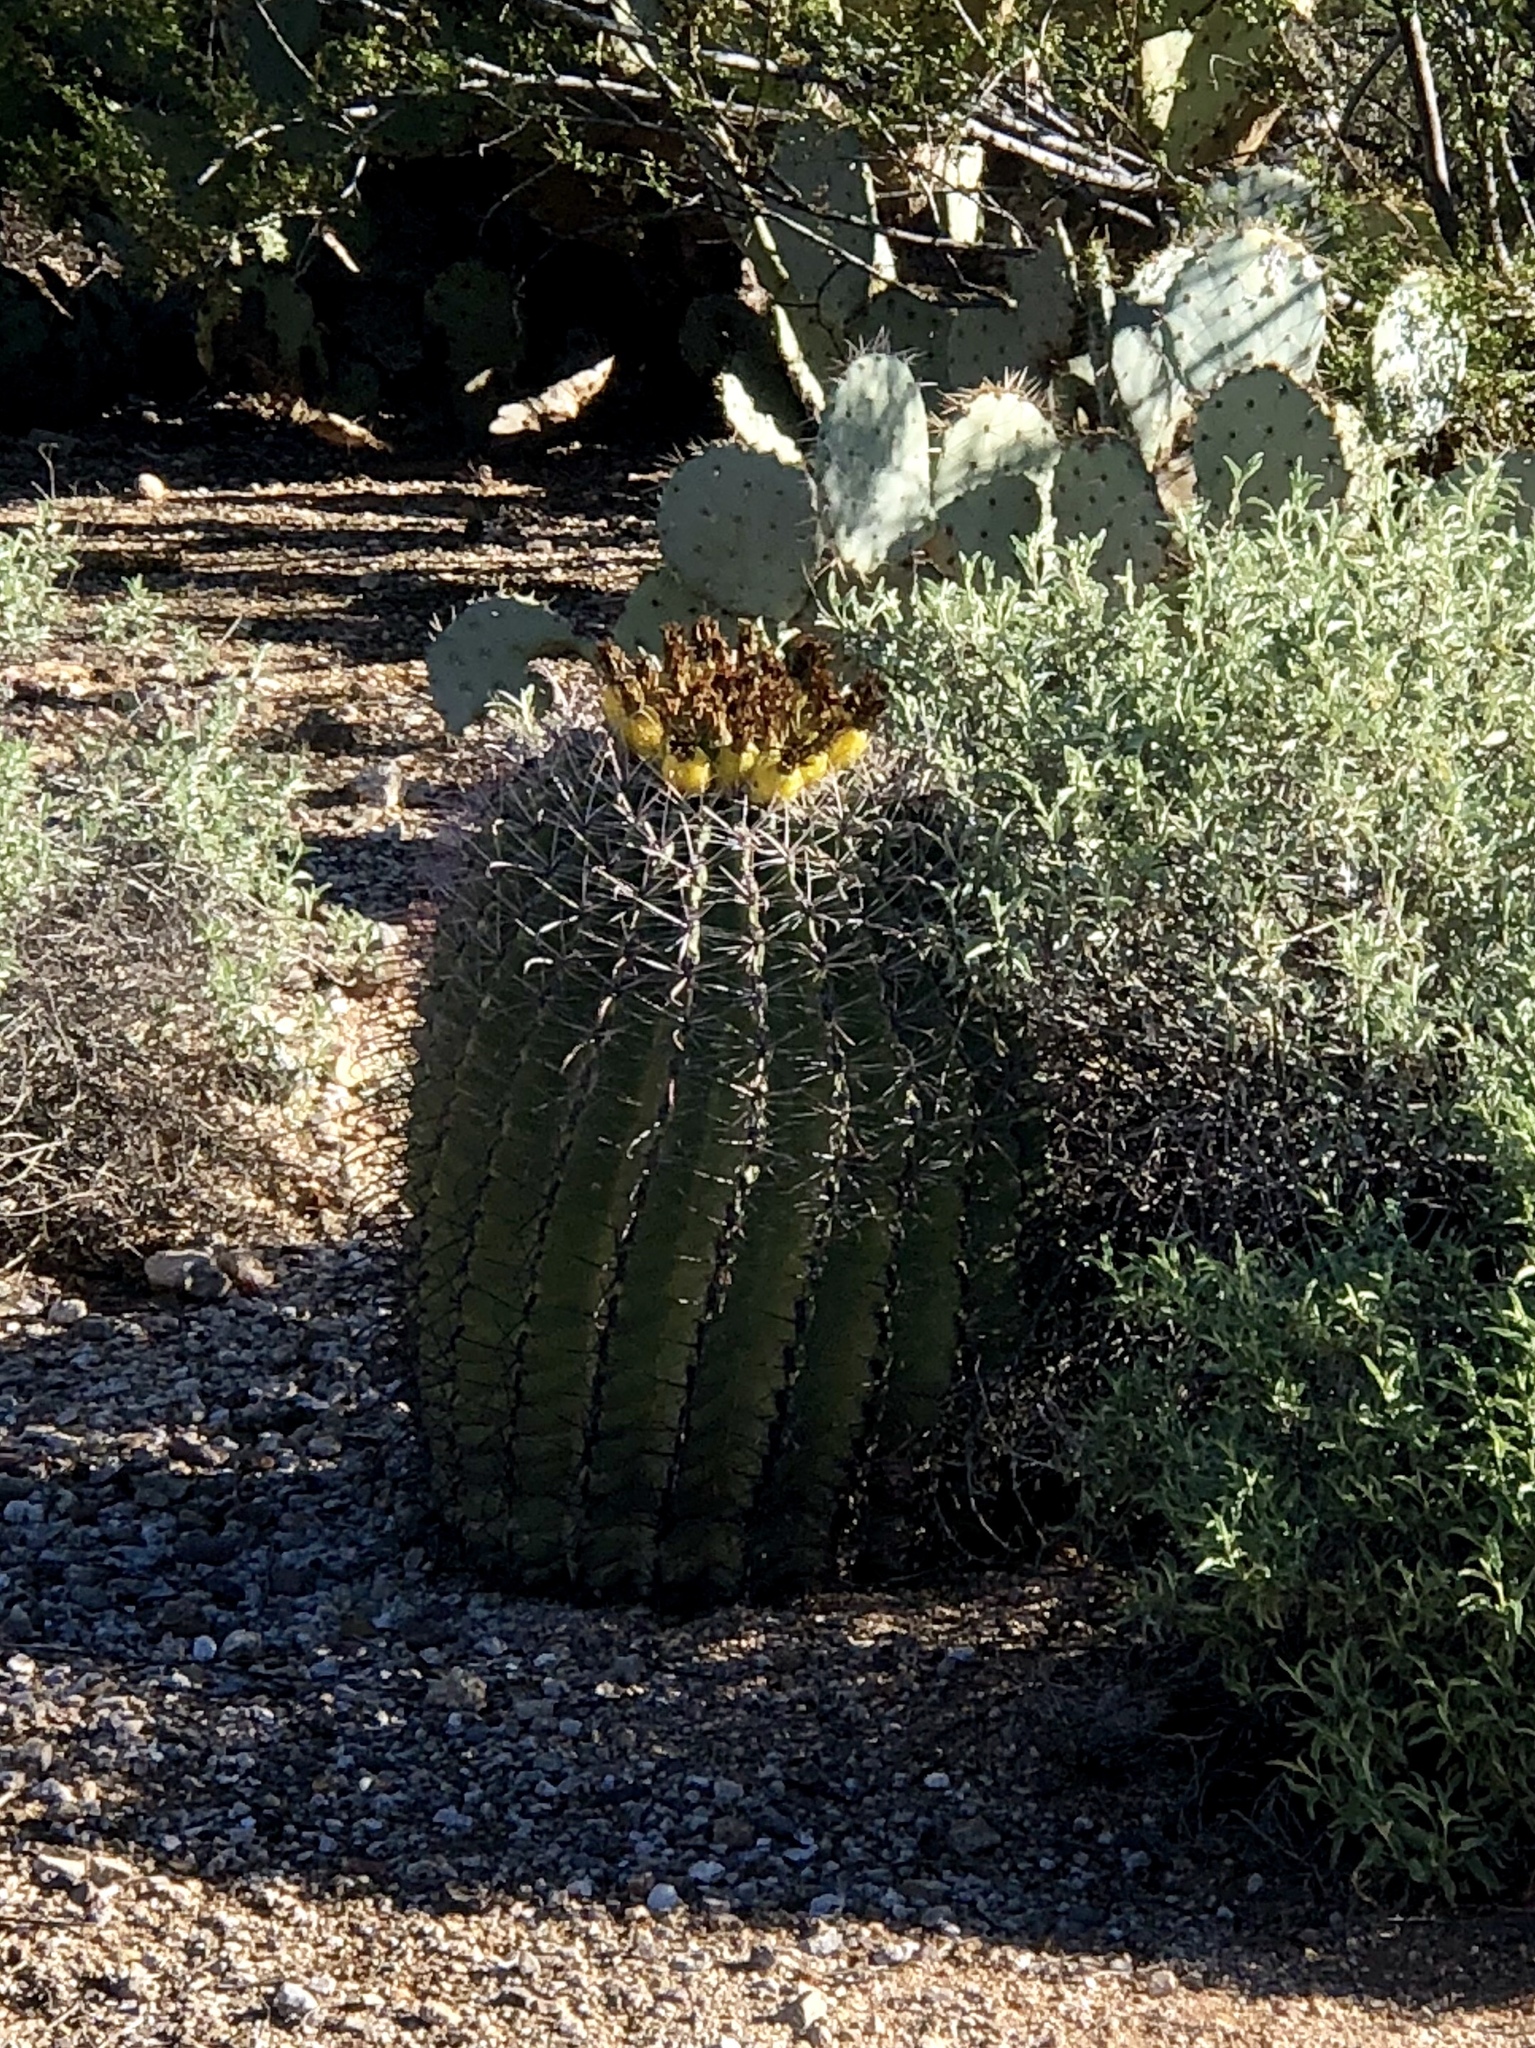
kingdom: Plantae
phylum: Tracheophyta
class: Magnoliopsida
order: Caryophyllales
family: Cactaceae
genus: Ferocactus
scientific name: Ferocactus wislizeni
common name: Candy barrel cactus
